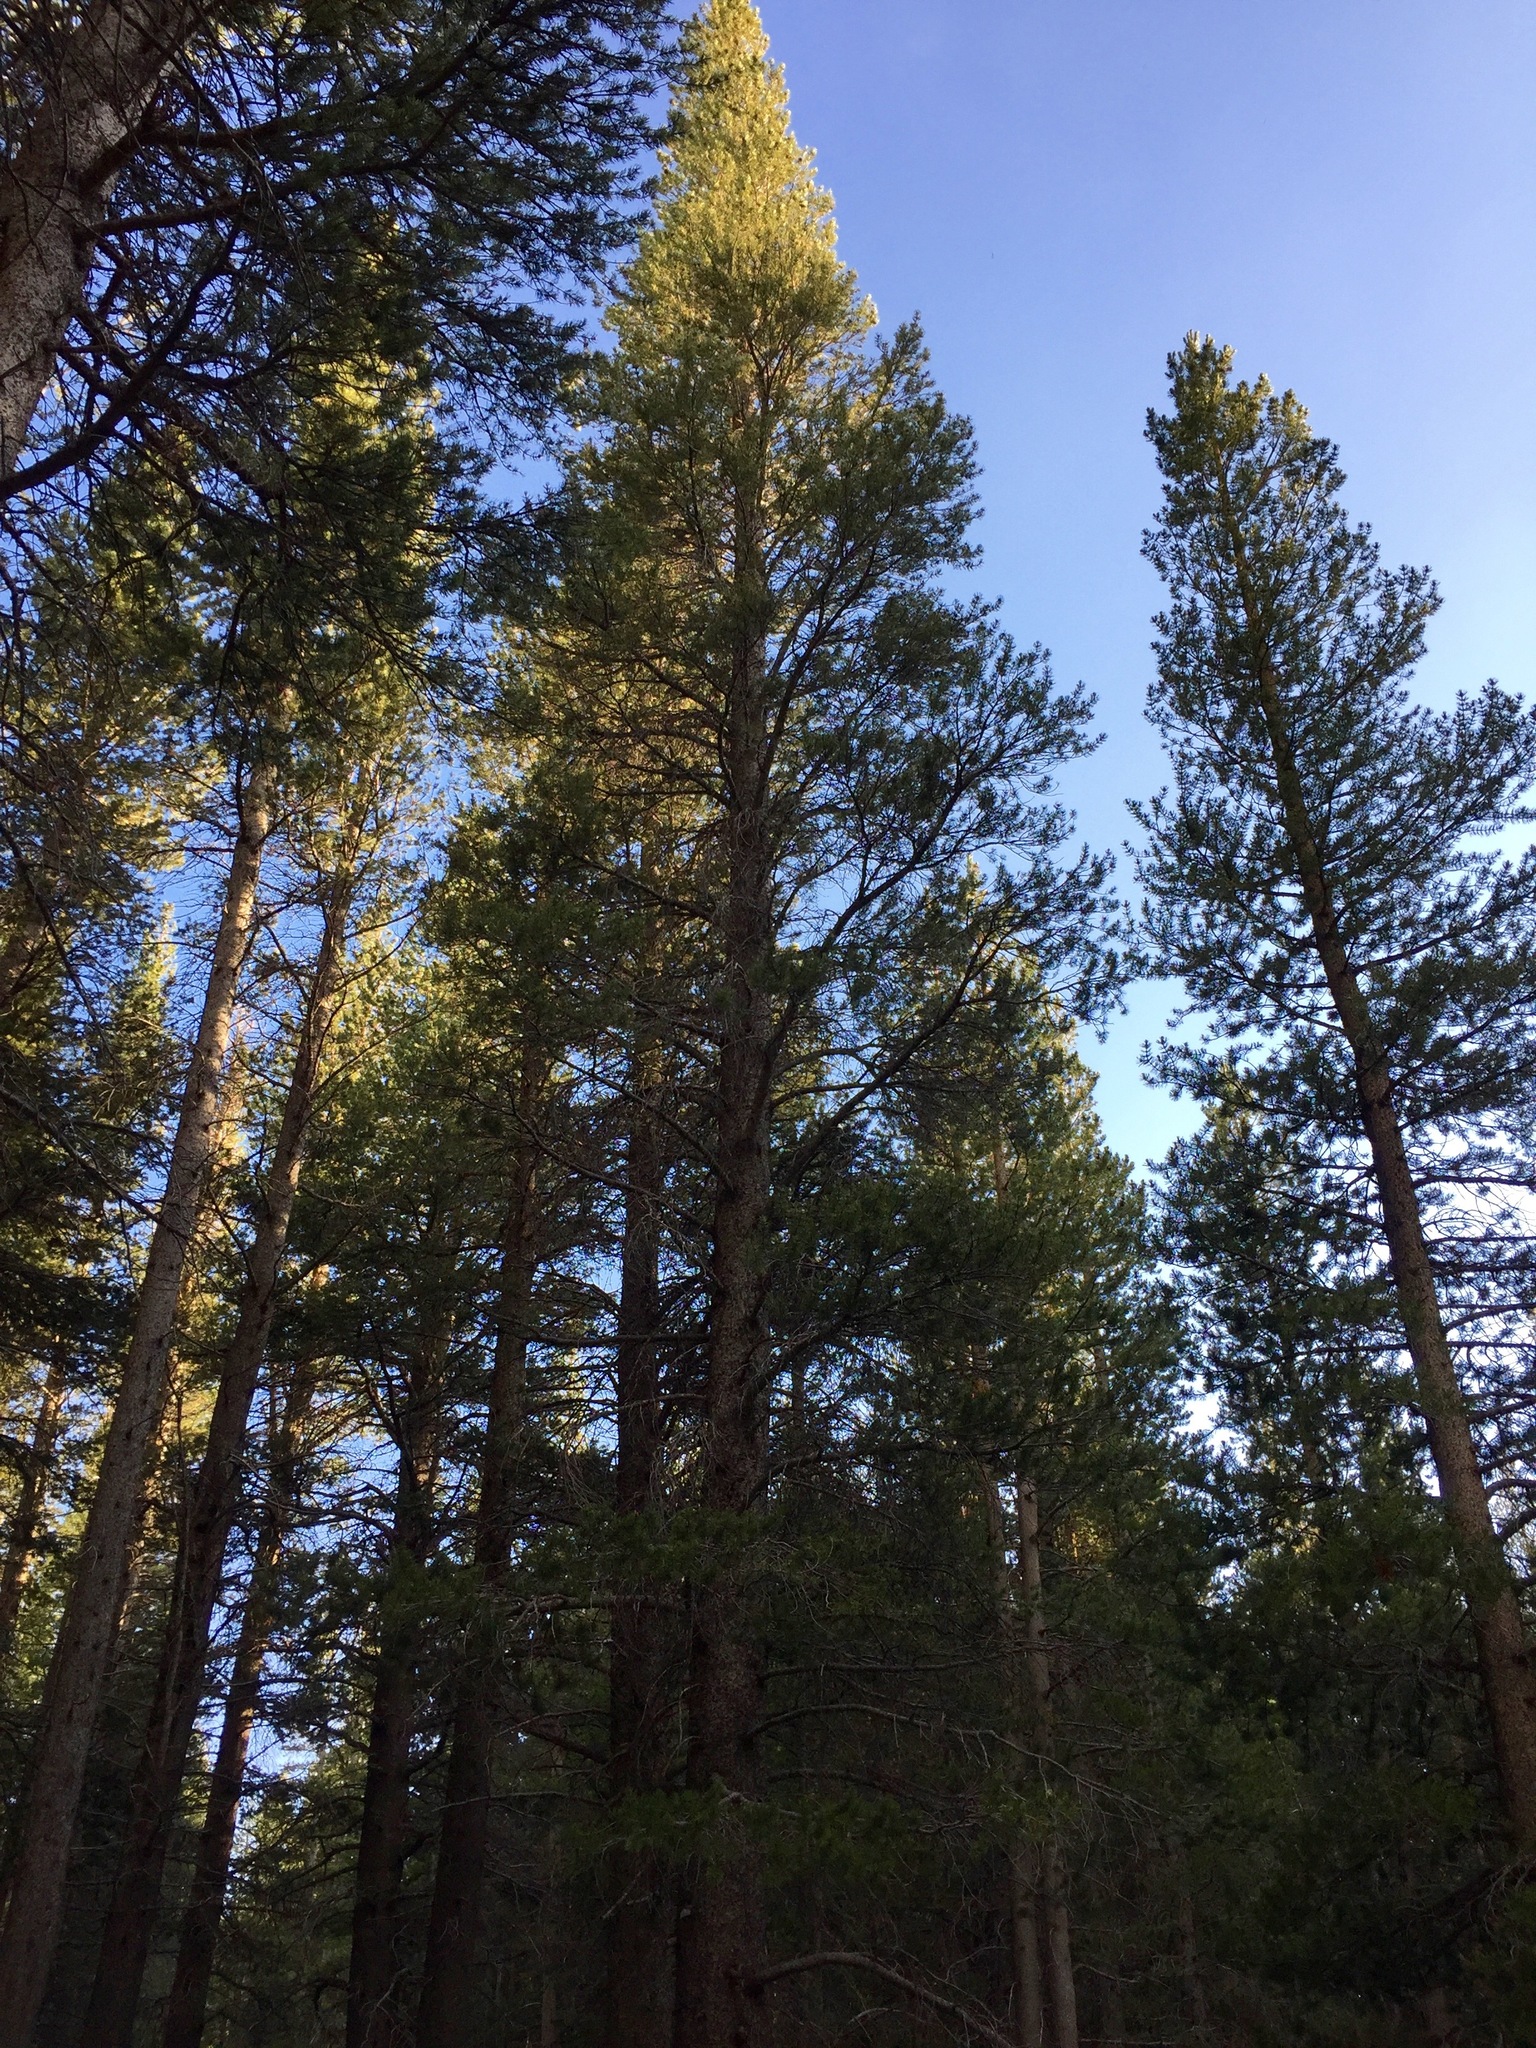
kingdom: Plantae
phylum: Tracheophyta
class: Pinopsida
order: Pinales
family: Pinaceae
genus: Pinus
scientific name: Pinus contorta
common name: Lodgepole pine
